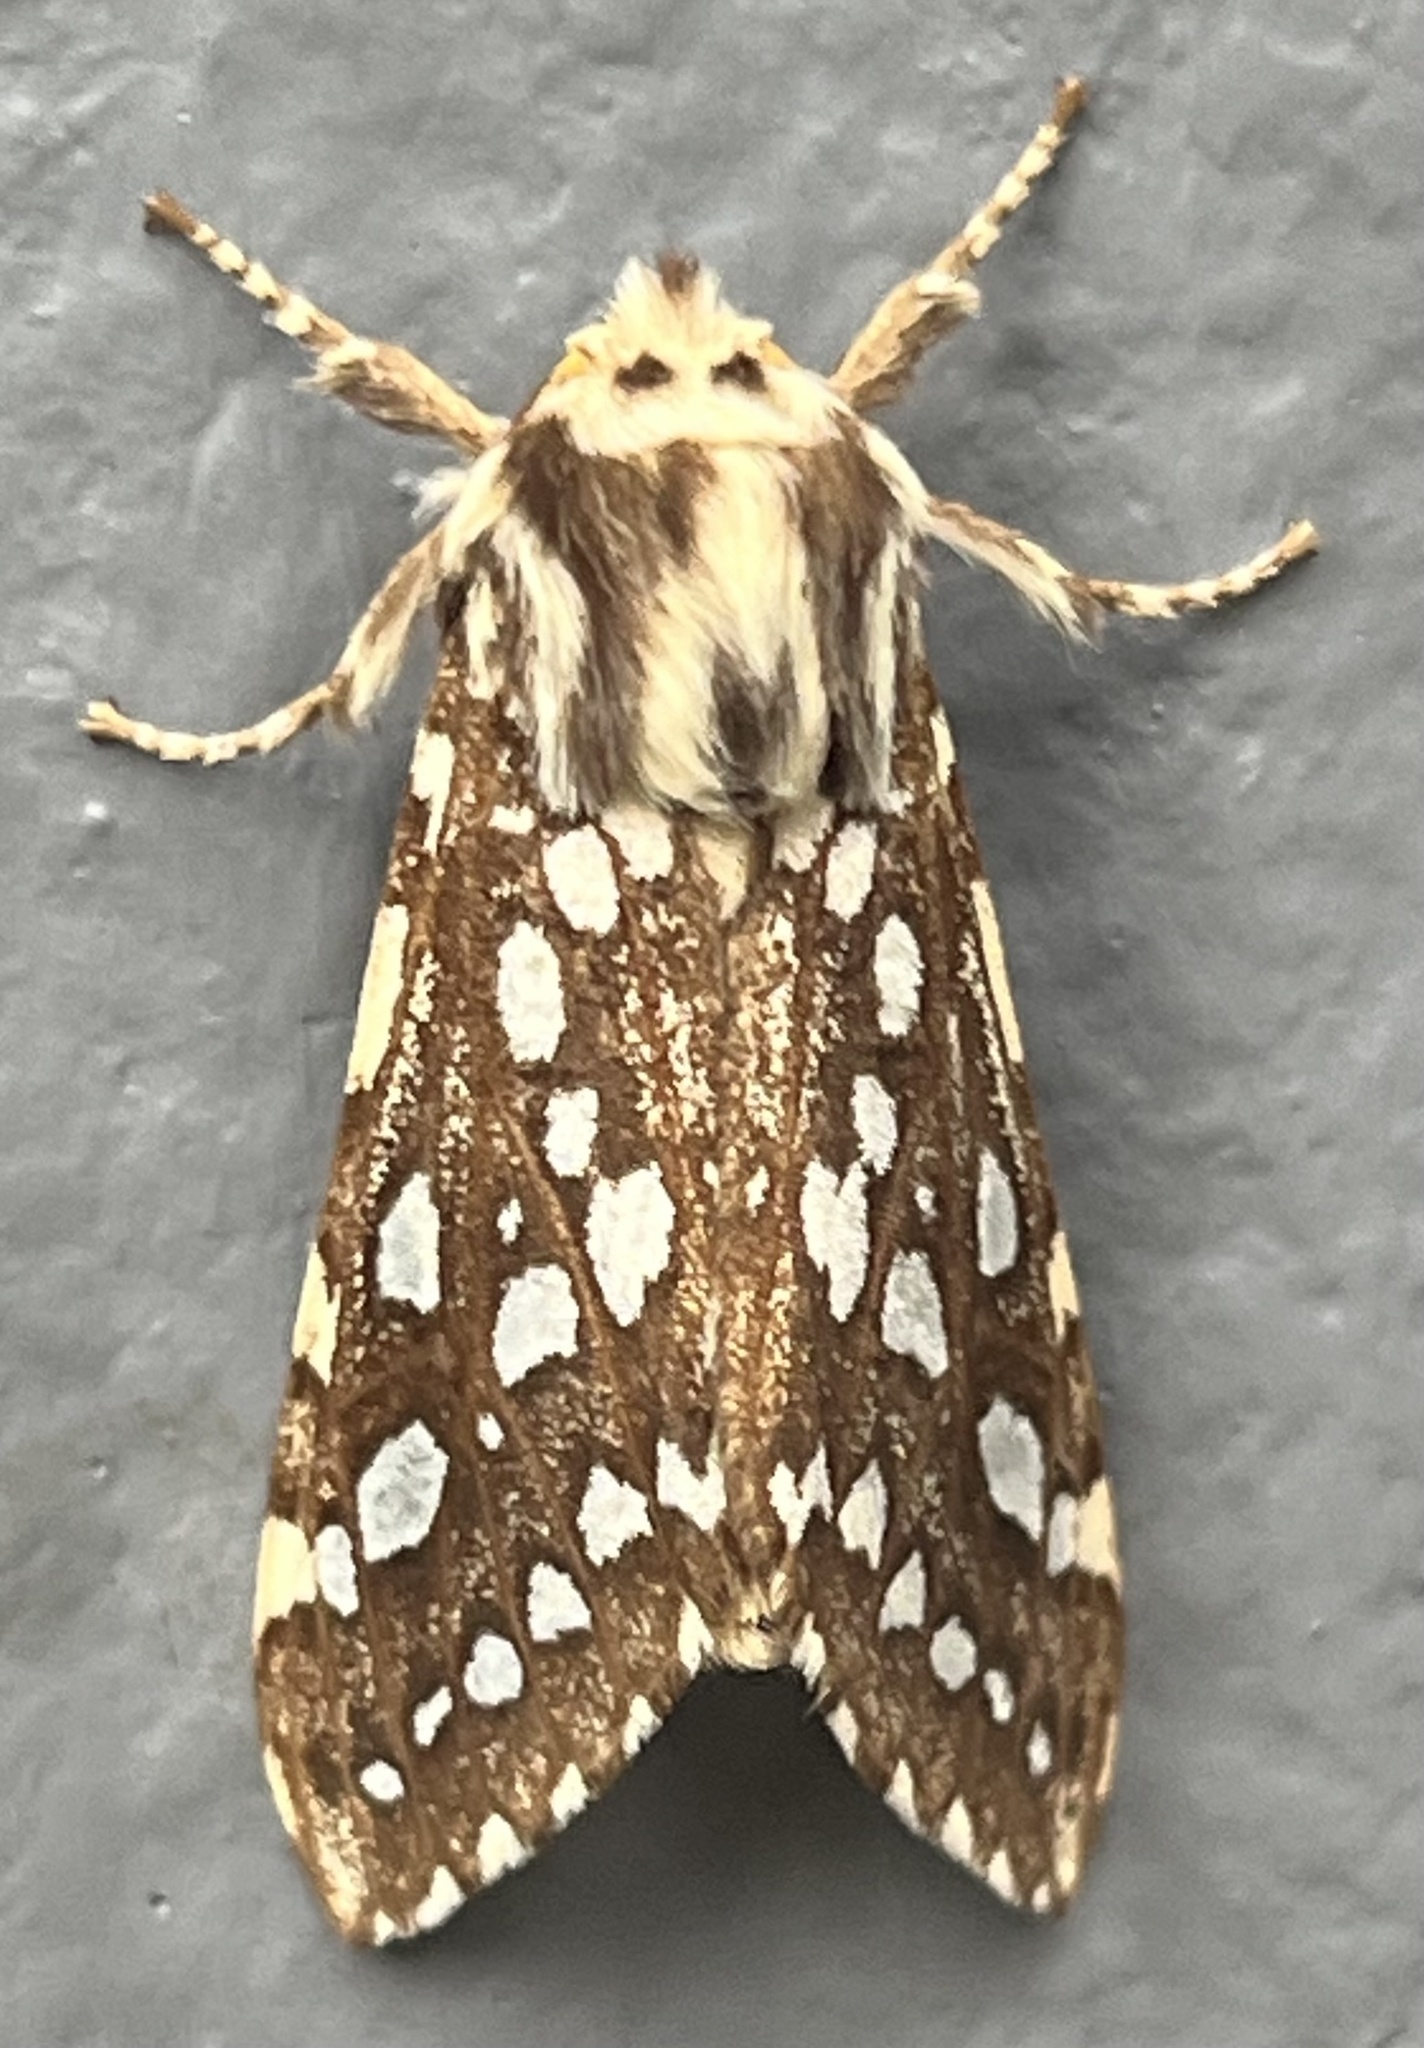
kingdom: Animalia
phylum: Arthropoda
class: Insecta
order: Lepidoptera
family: Erebidae
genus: Lophocampa
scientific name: Lophocampa argentata
